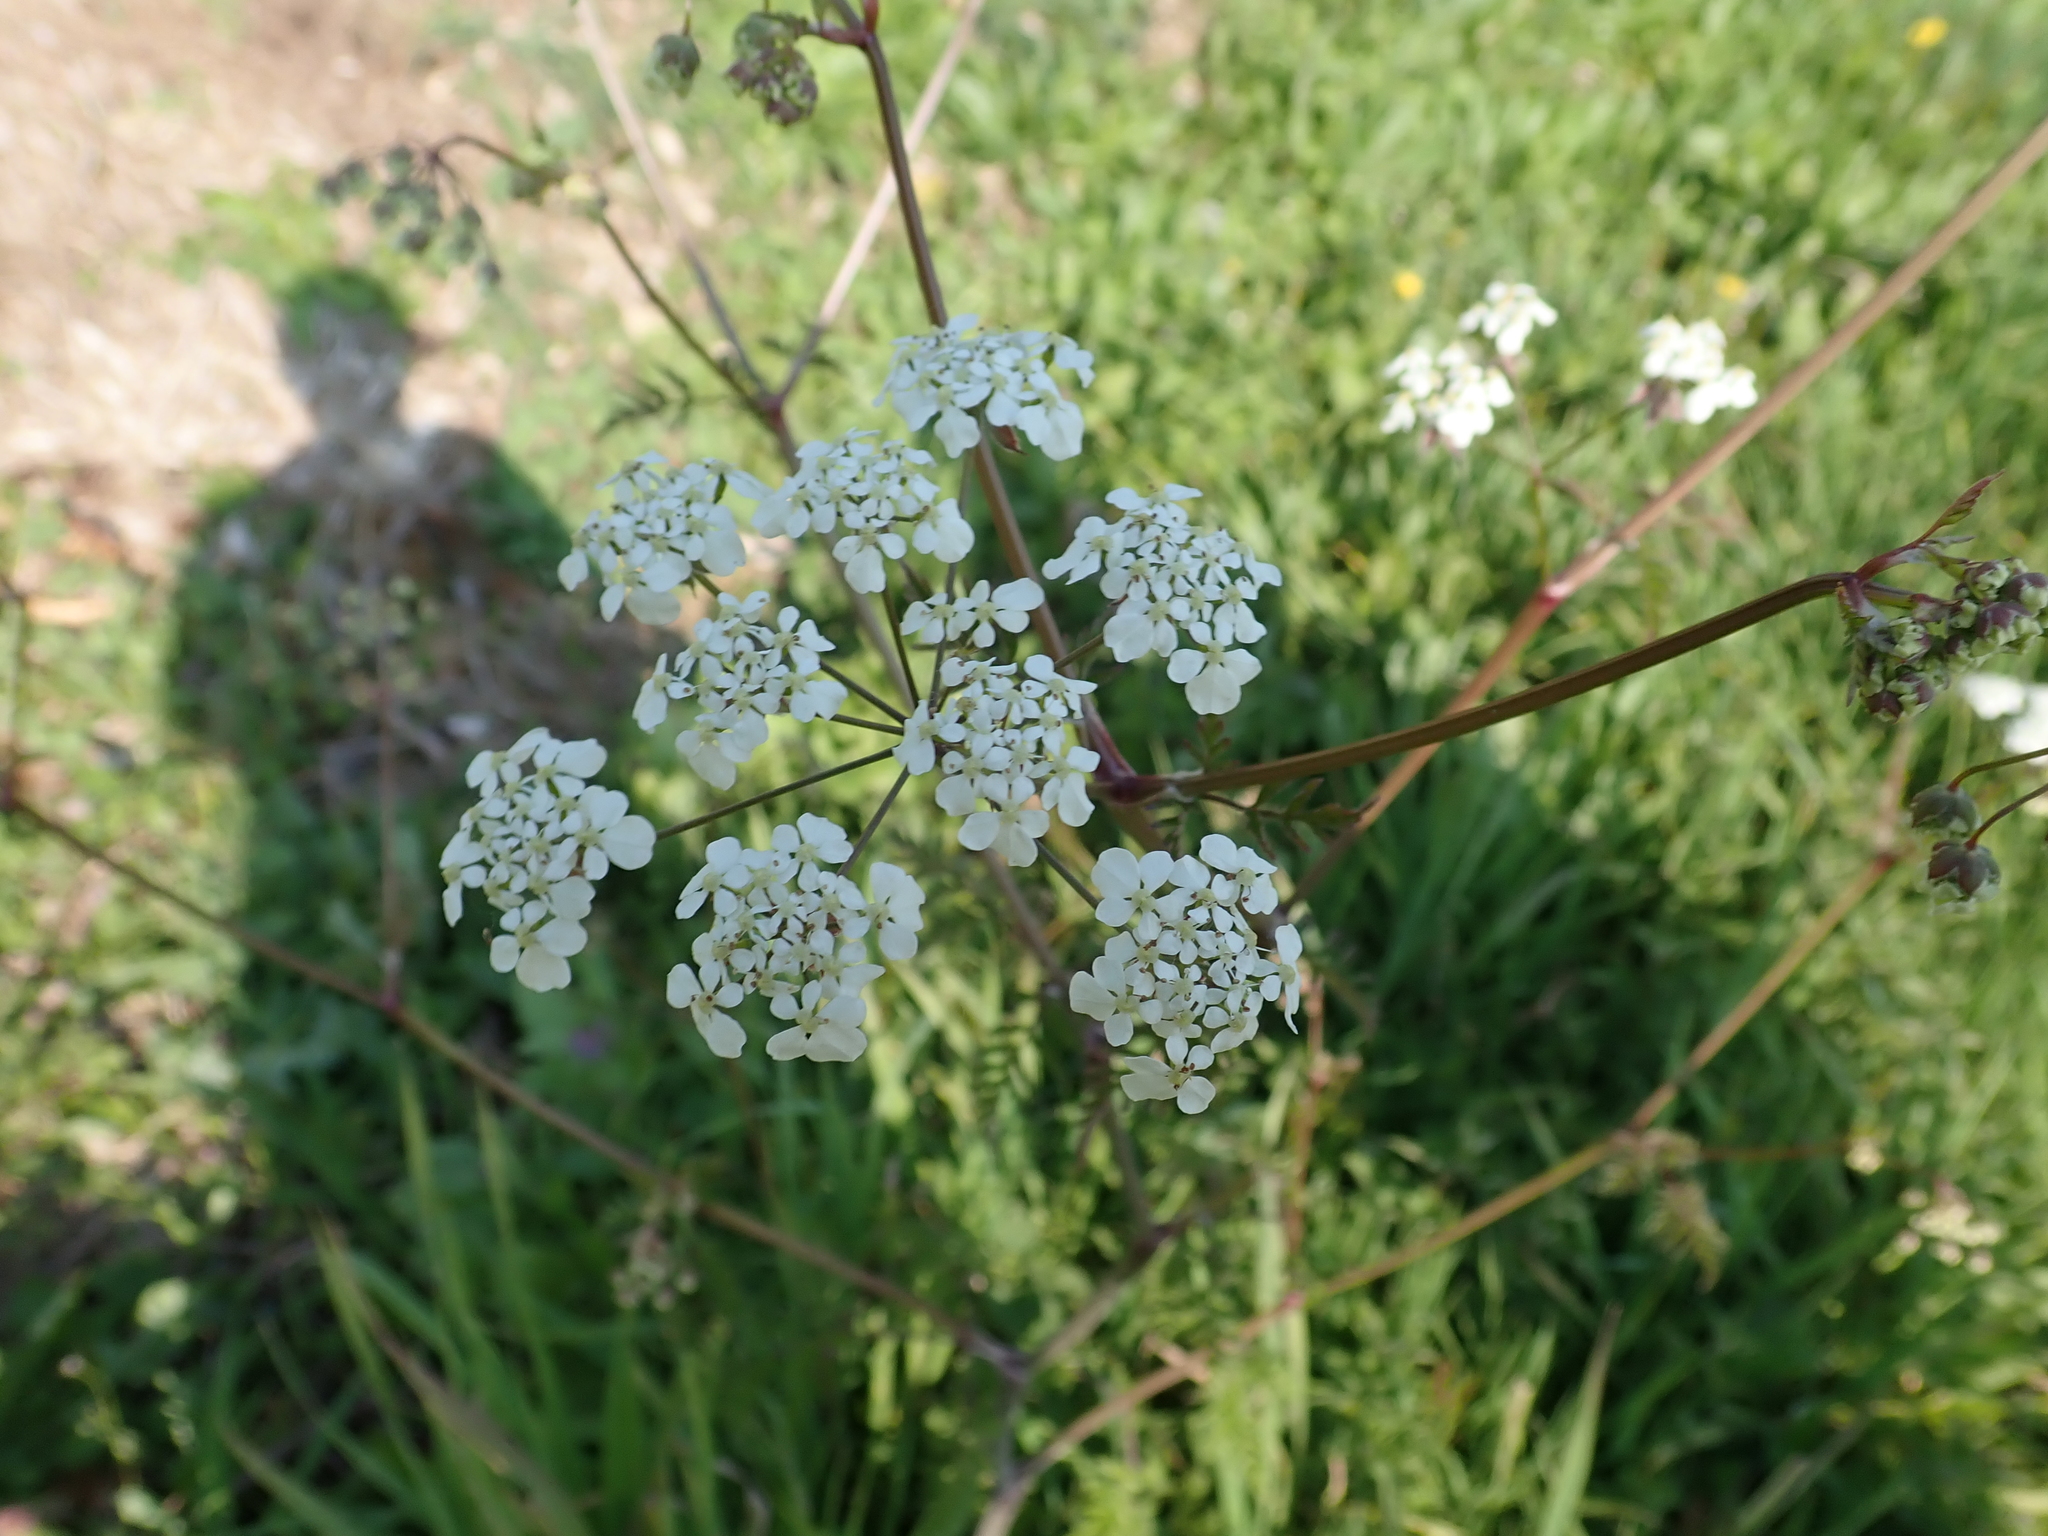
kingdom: Plantae
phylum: Tracheophyta
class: Magnoliopsida
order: Apiales
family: Apiaceae
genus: Anthriscus
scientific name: Anthriscus sylvestris
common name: Cow parsley
